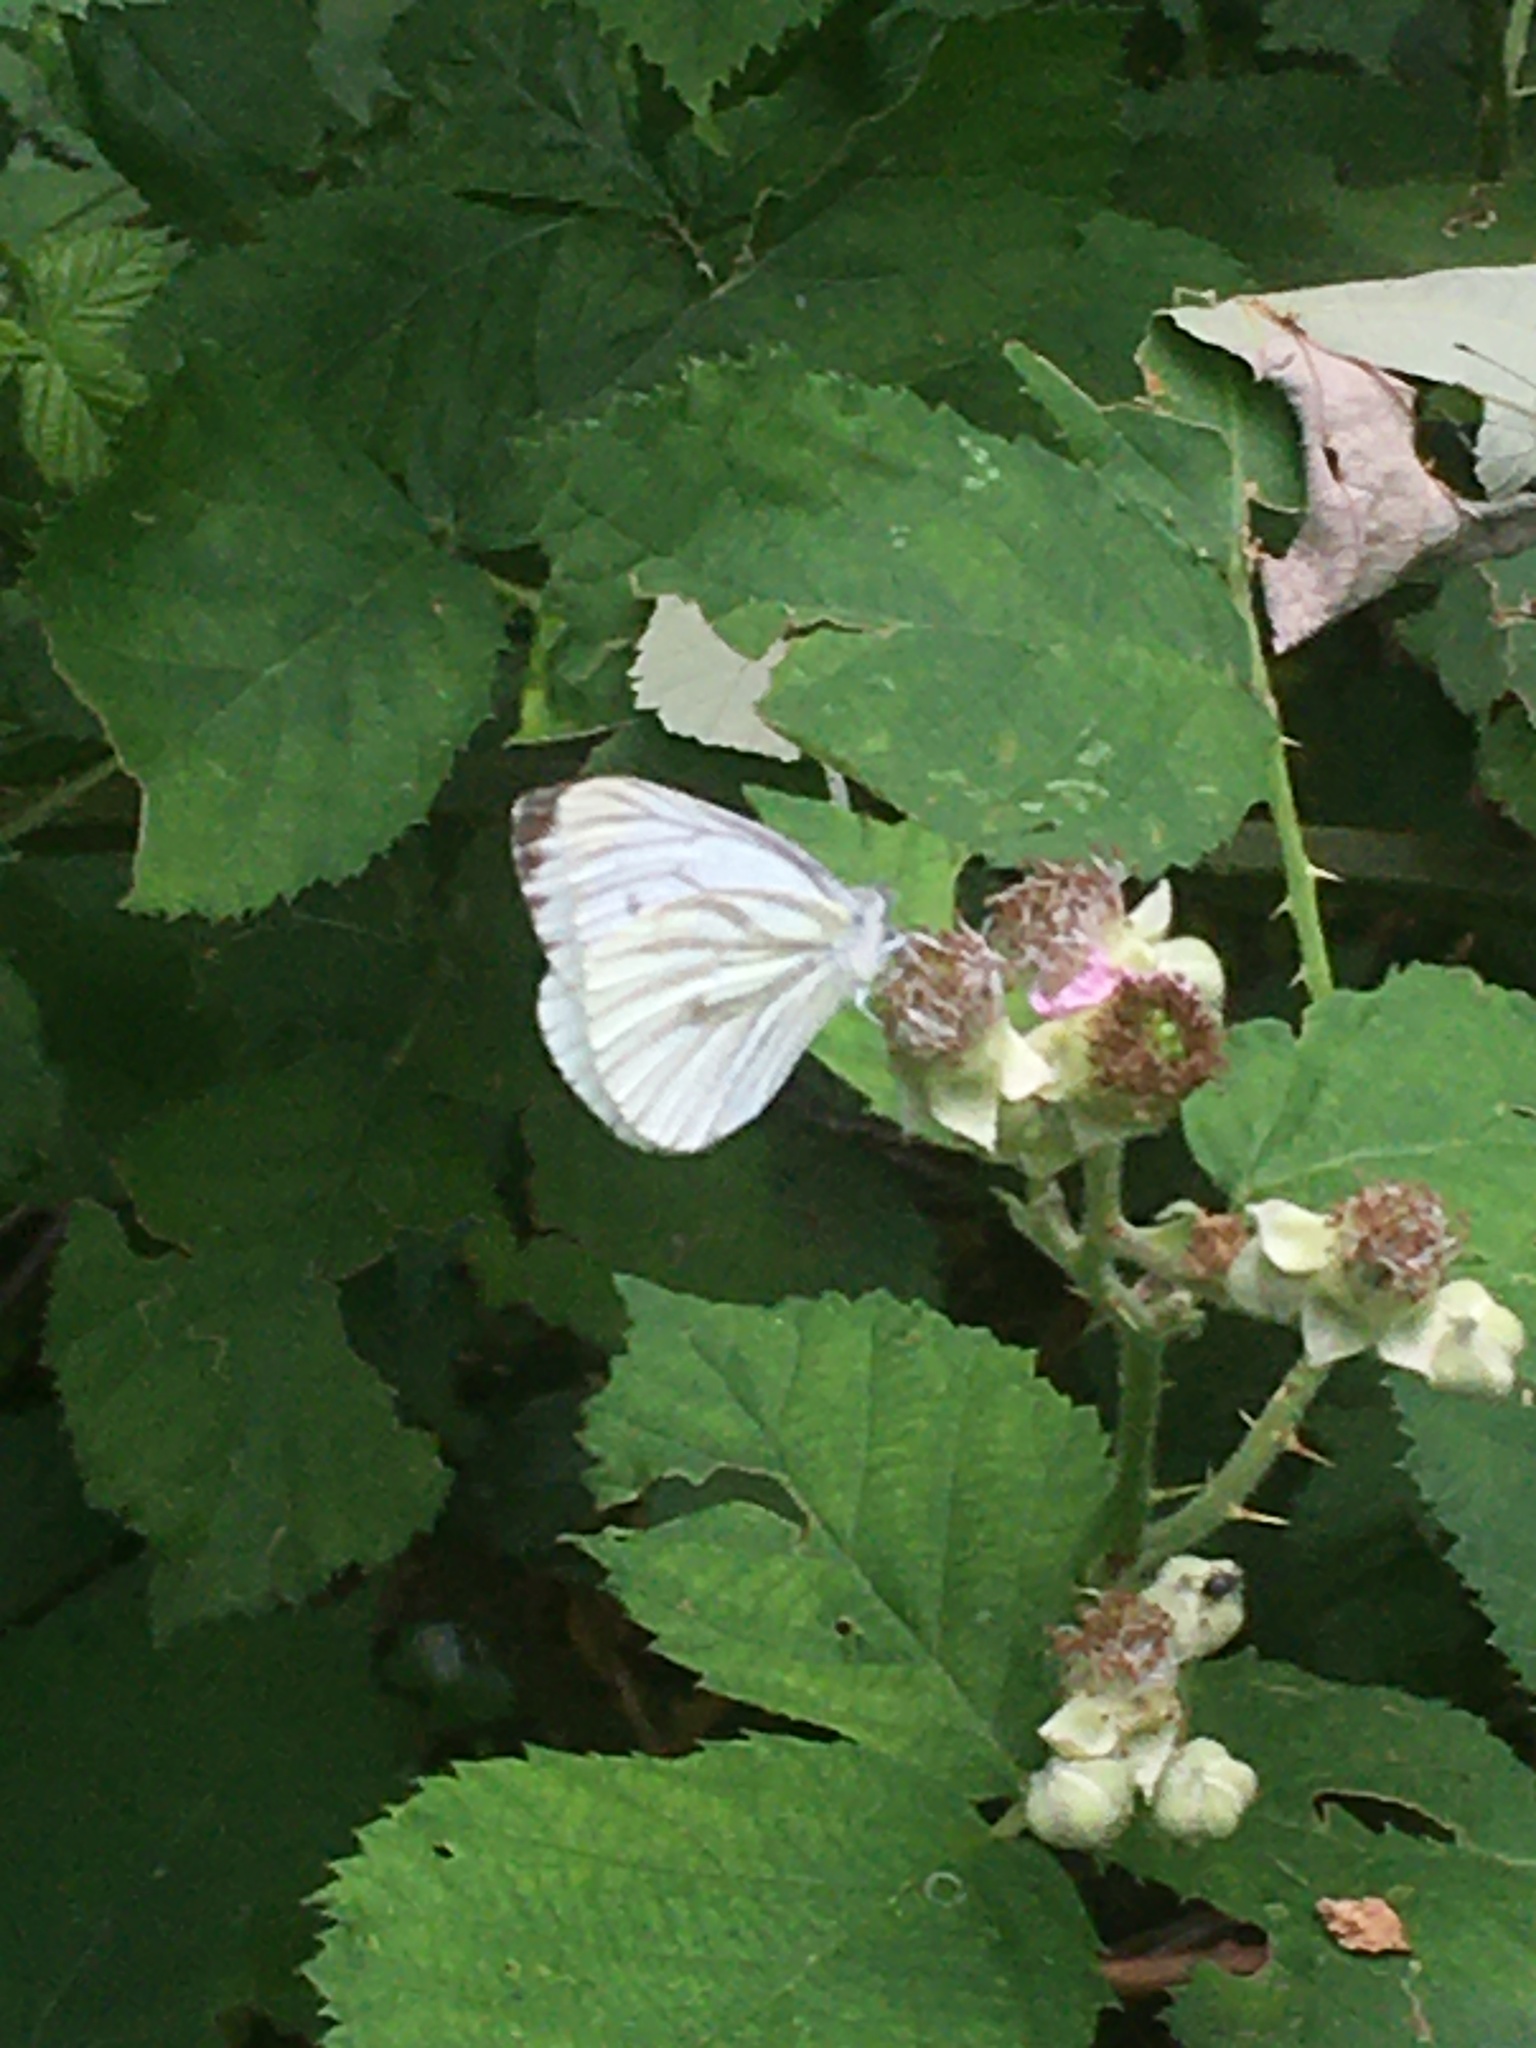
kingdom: Animalia
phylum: Arthropoda
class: Insecta
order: Lepidoptera
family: Pieridae
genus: Pieris
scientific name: Pieris napi
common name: Green-veined white
